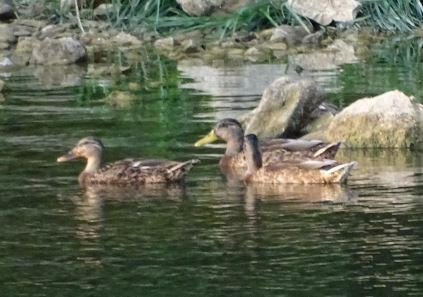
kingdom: Animalia
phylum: Chordata
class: Aves
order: Anseriformes
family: Anatidae
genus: Anas
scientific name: Anas platyrhynchos
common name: Mallard
